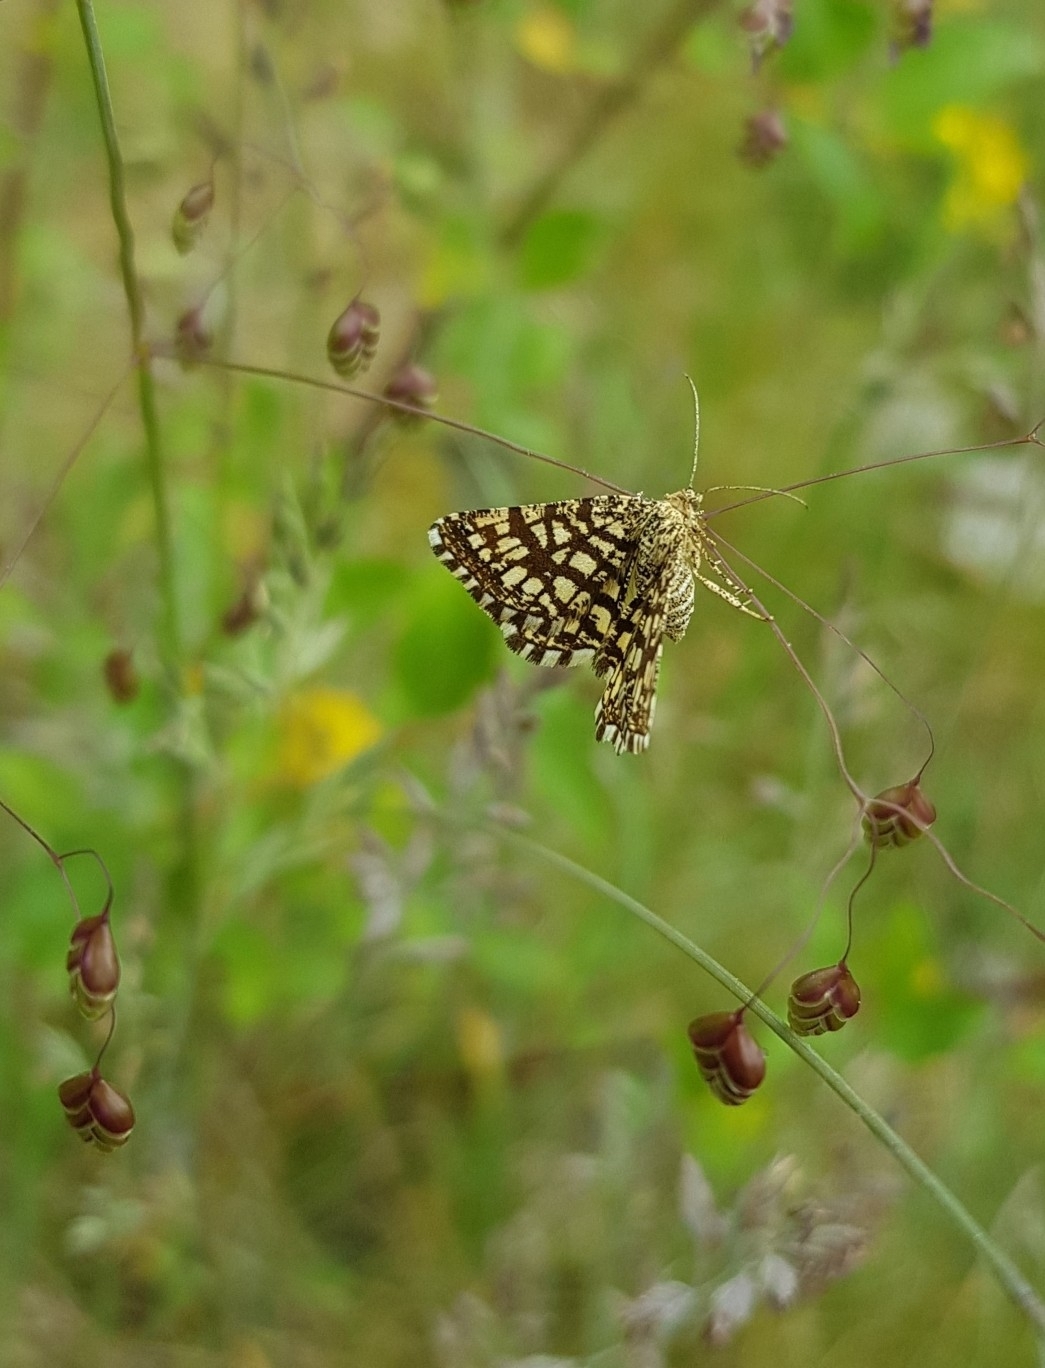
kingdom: Animalia
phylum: Arthropoda
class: Insecta
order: Lepidoptera
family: Geometridae
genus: Chiasmia
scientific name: Chiasmia clathrata
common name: Latticed heath
